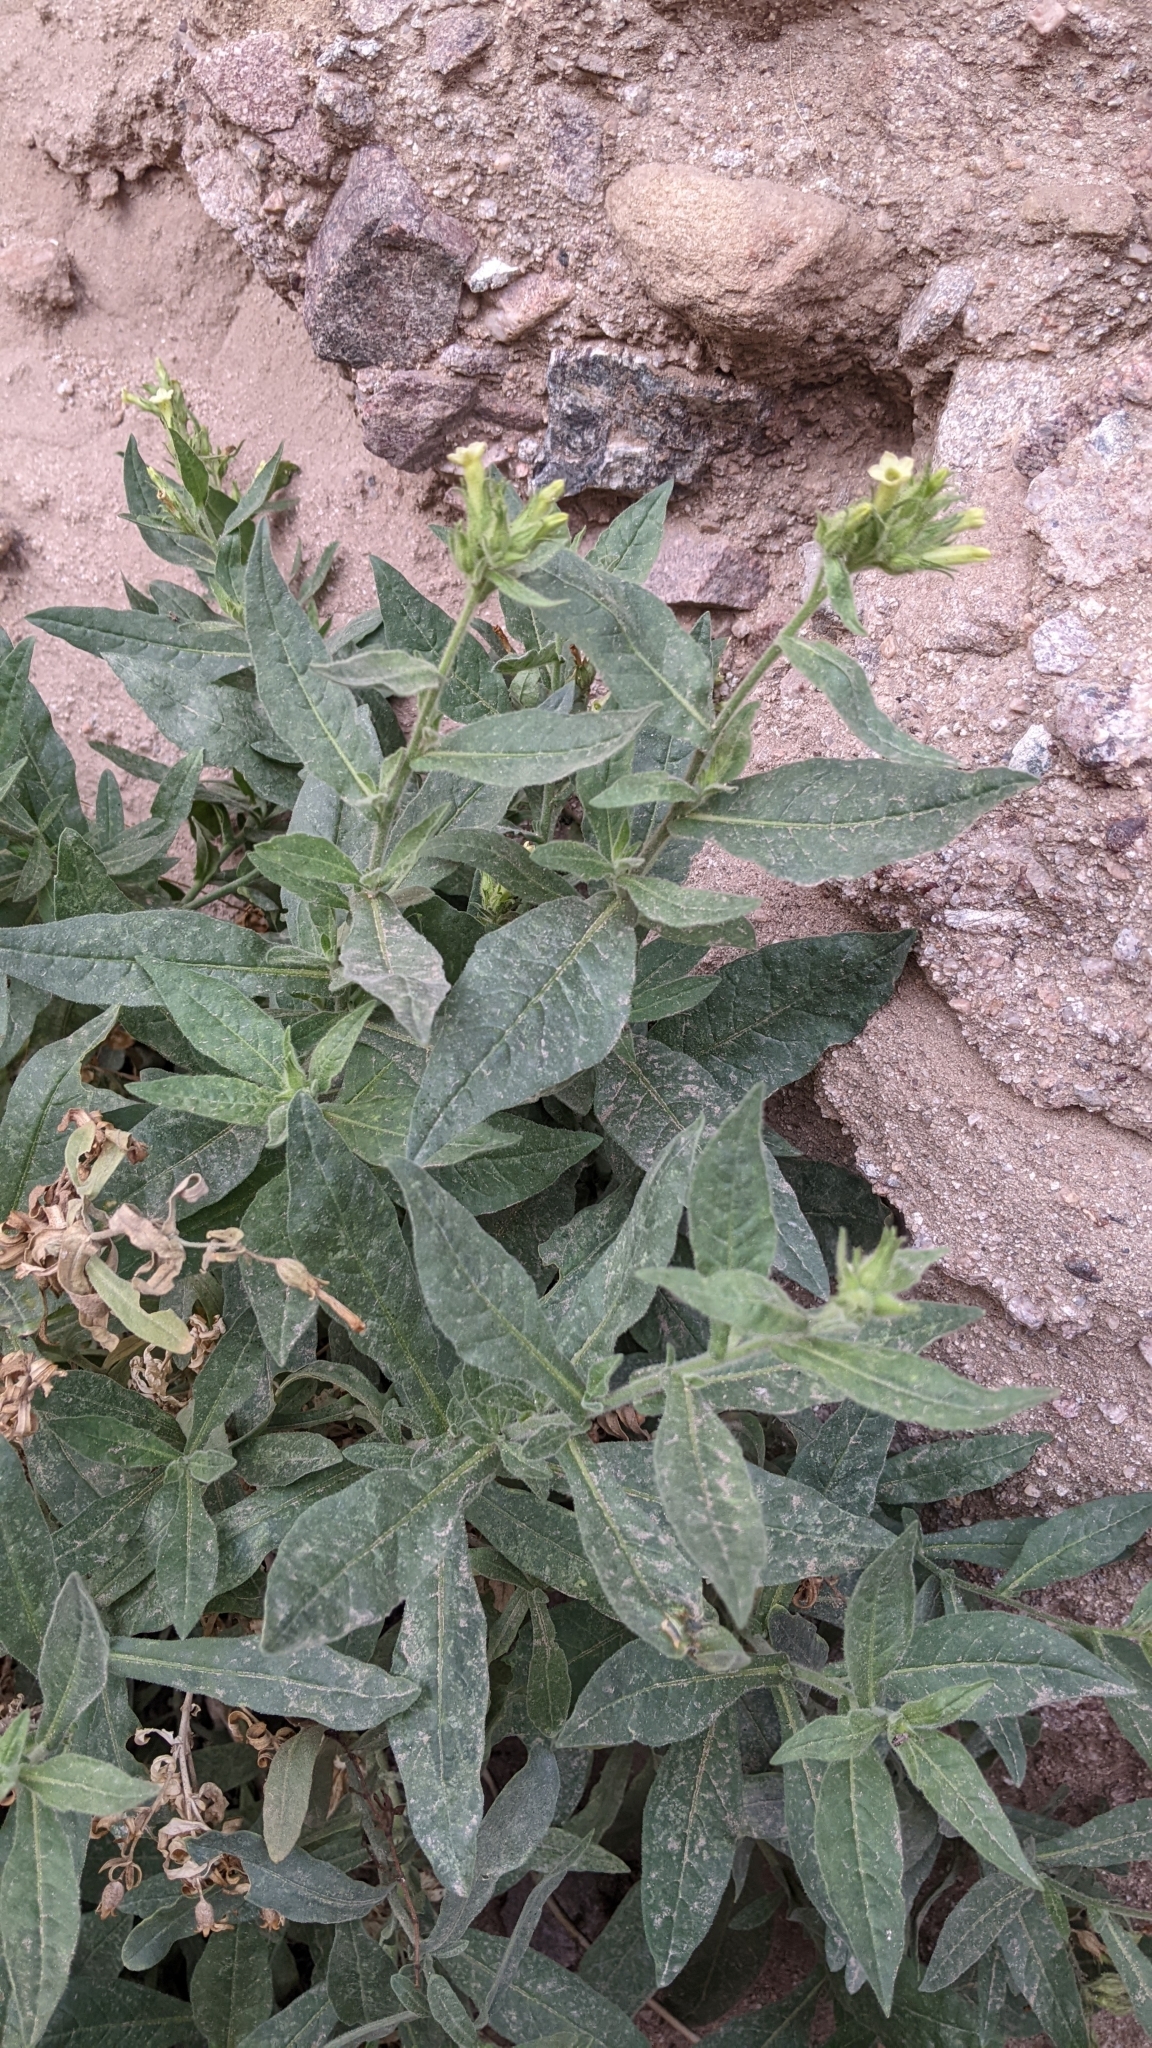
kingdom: Plantae
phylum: Tracheophyta
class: Magnoliopsida
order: Solanales
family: Solanaceae
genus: Nicotiana
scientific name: Nicotiana obtusifolia
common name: Desert tobacco
